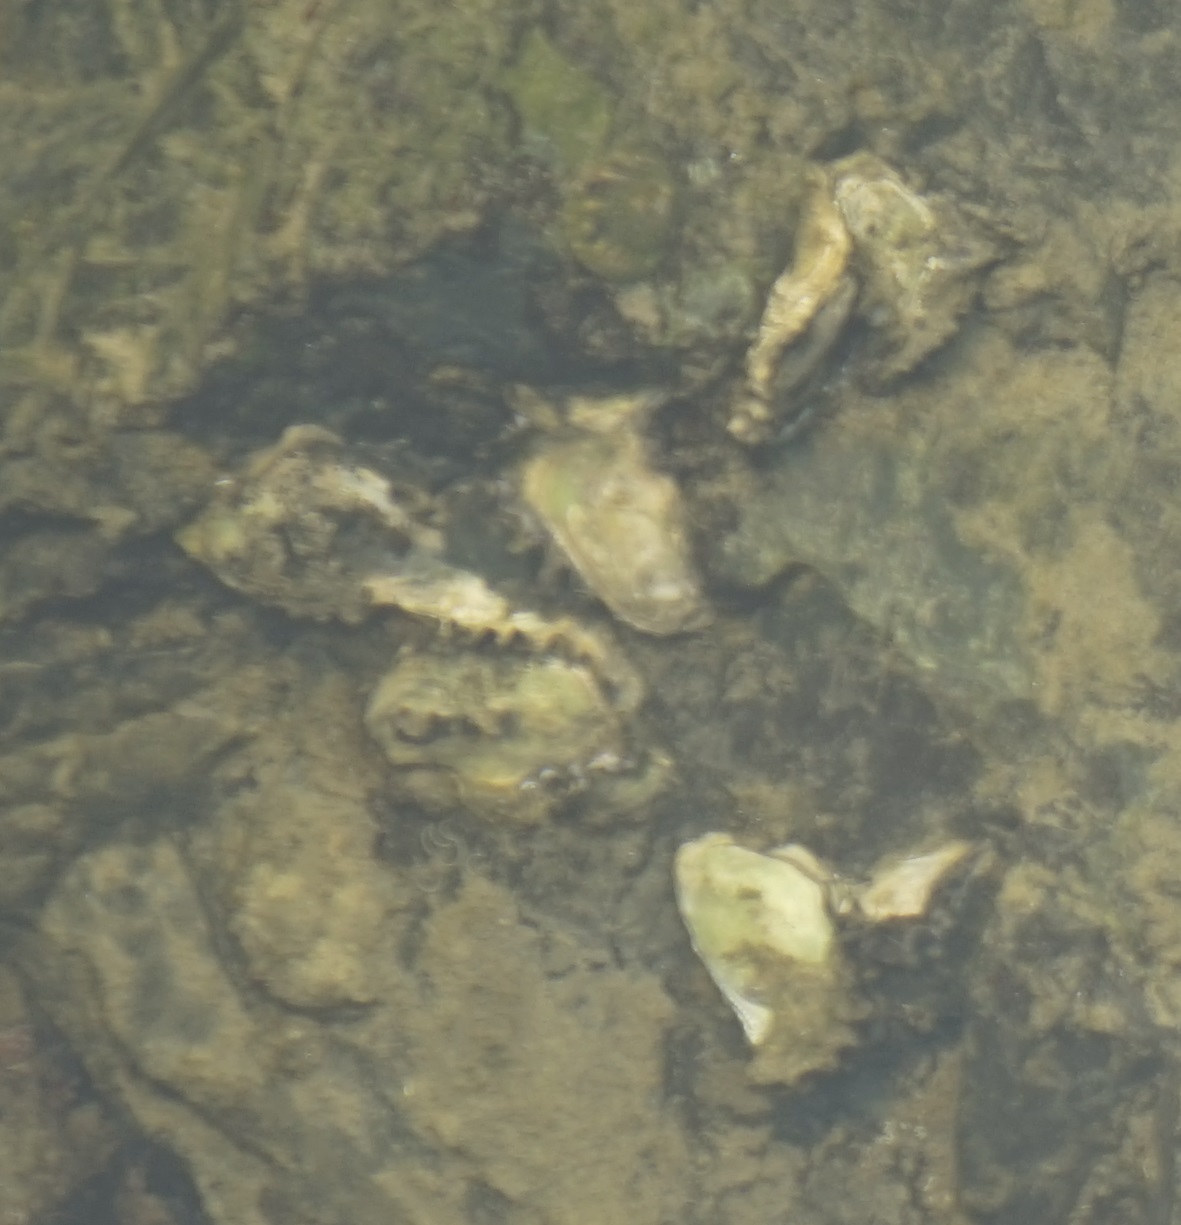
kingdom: Animalia
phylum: Mollusca
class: Bivalvia
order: Ostreida
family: Ostreidae
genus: Saccostrea
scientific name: Saccostrea glomerata
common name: Sydney cupped oyster
